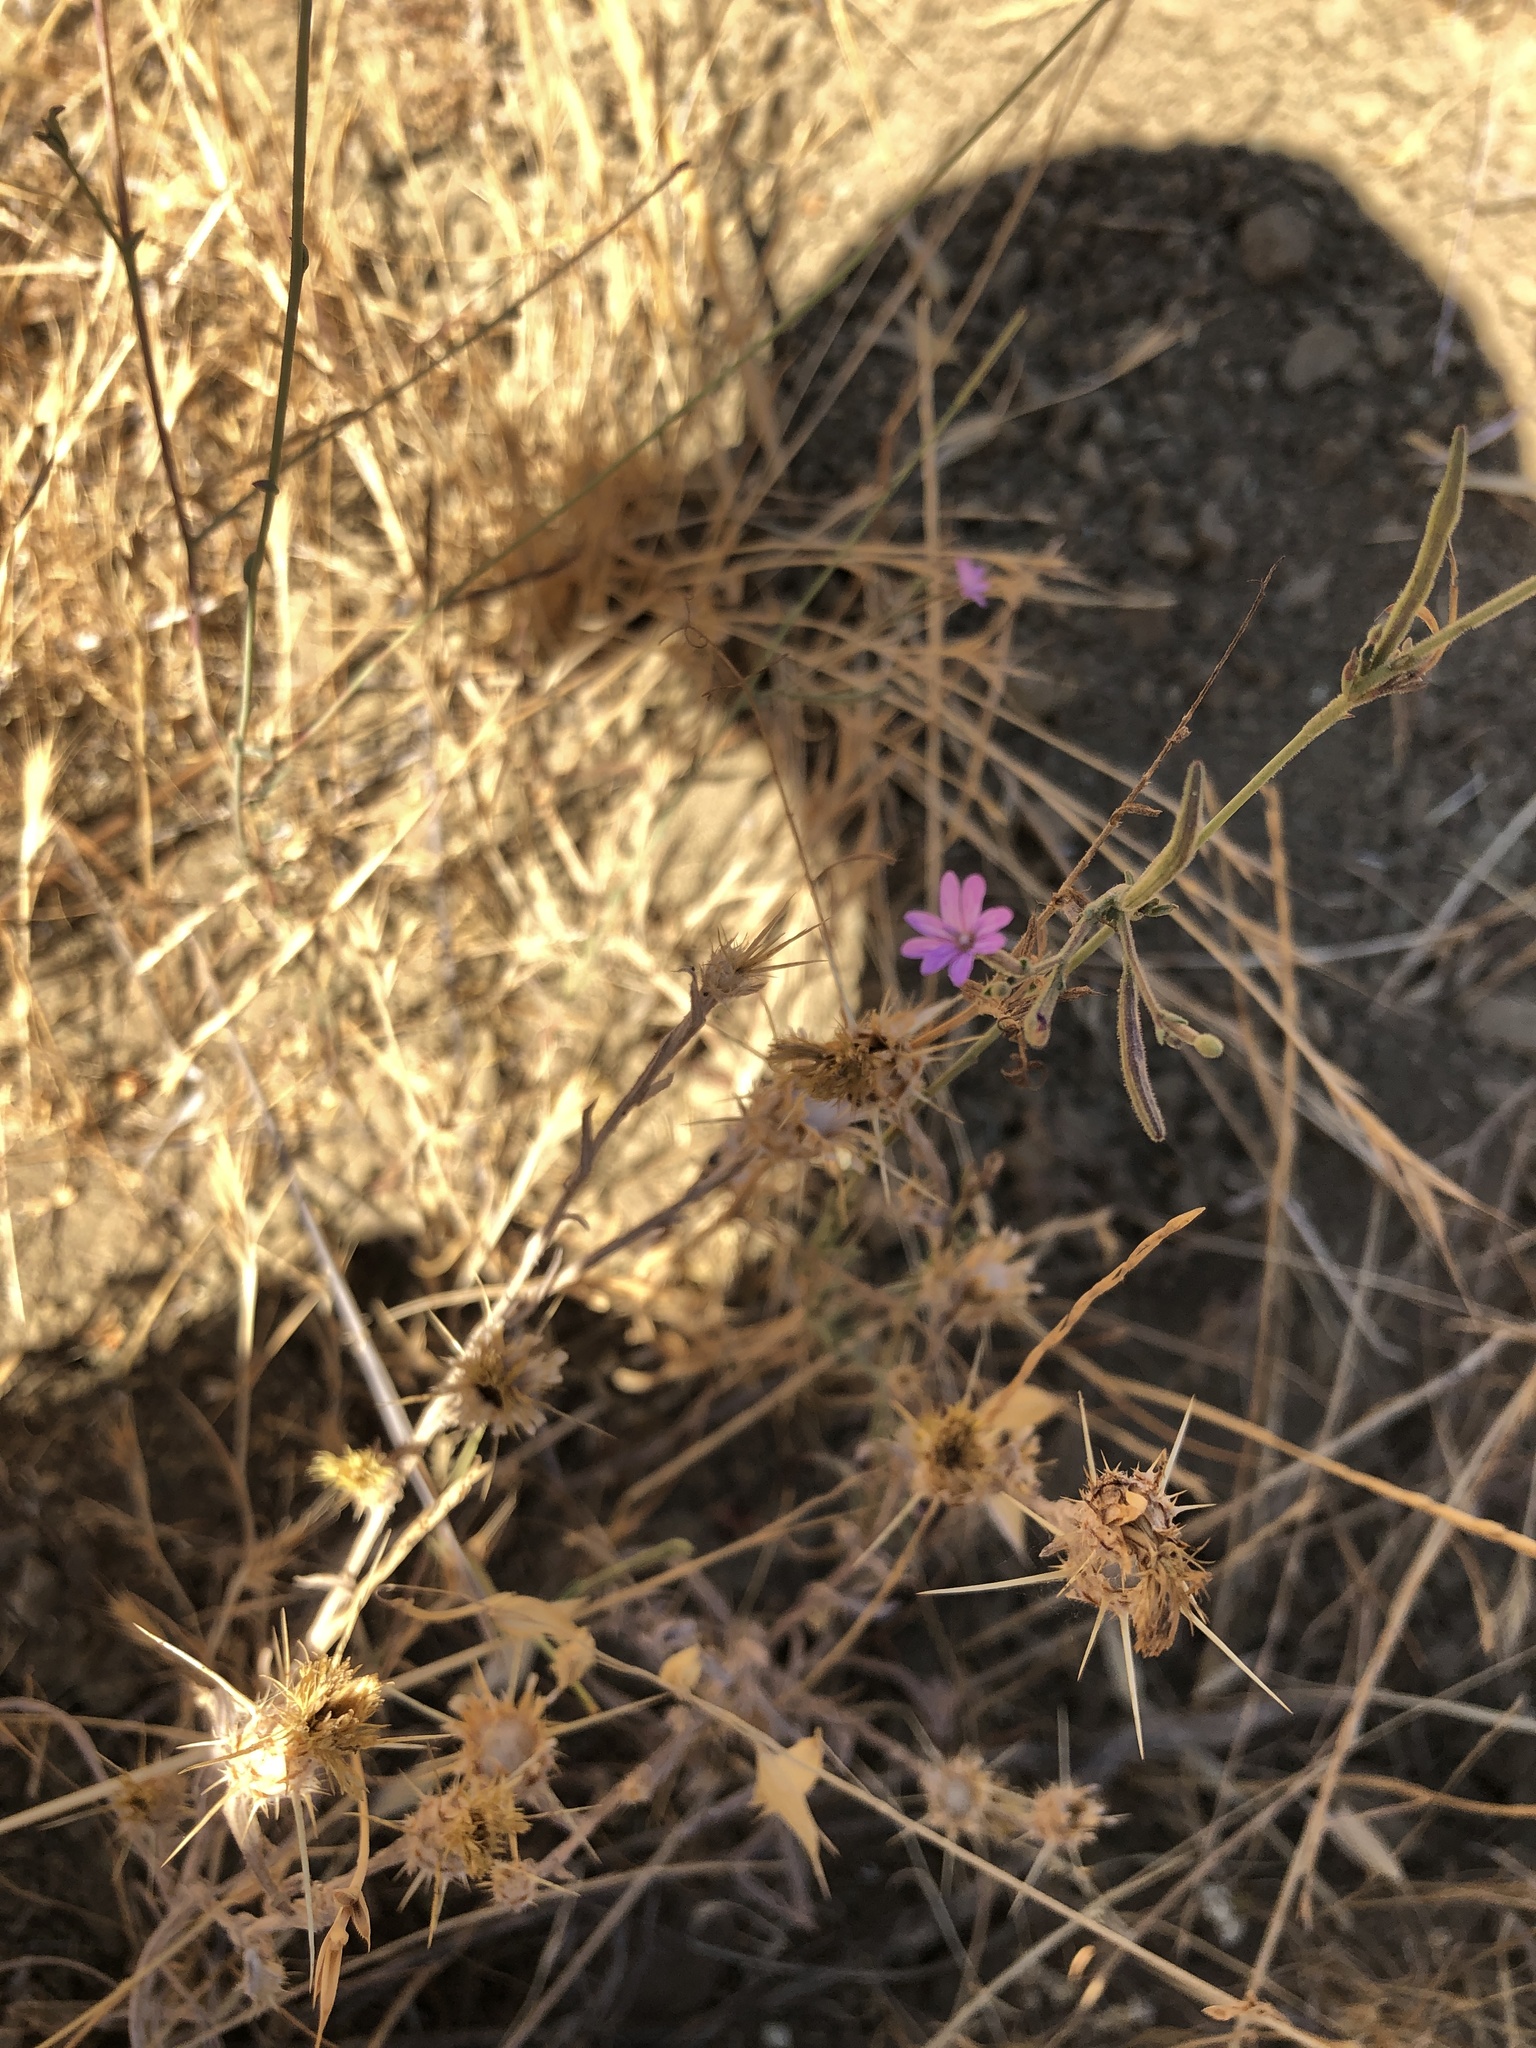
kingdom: Plantae
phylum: Tracheophyta
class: Magnoliopsida
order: Myrtales
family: Onagraceae
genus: Epilobium
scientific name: Epilobium brachycarpum
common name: Annual willowherb
